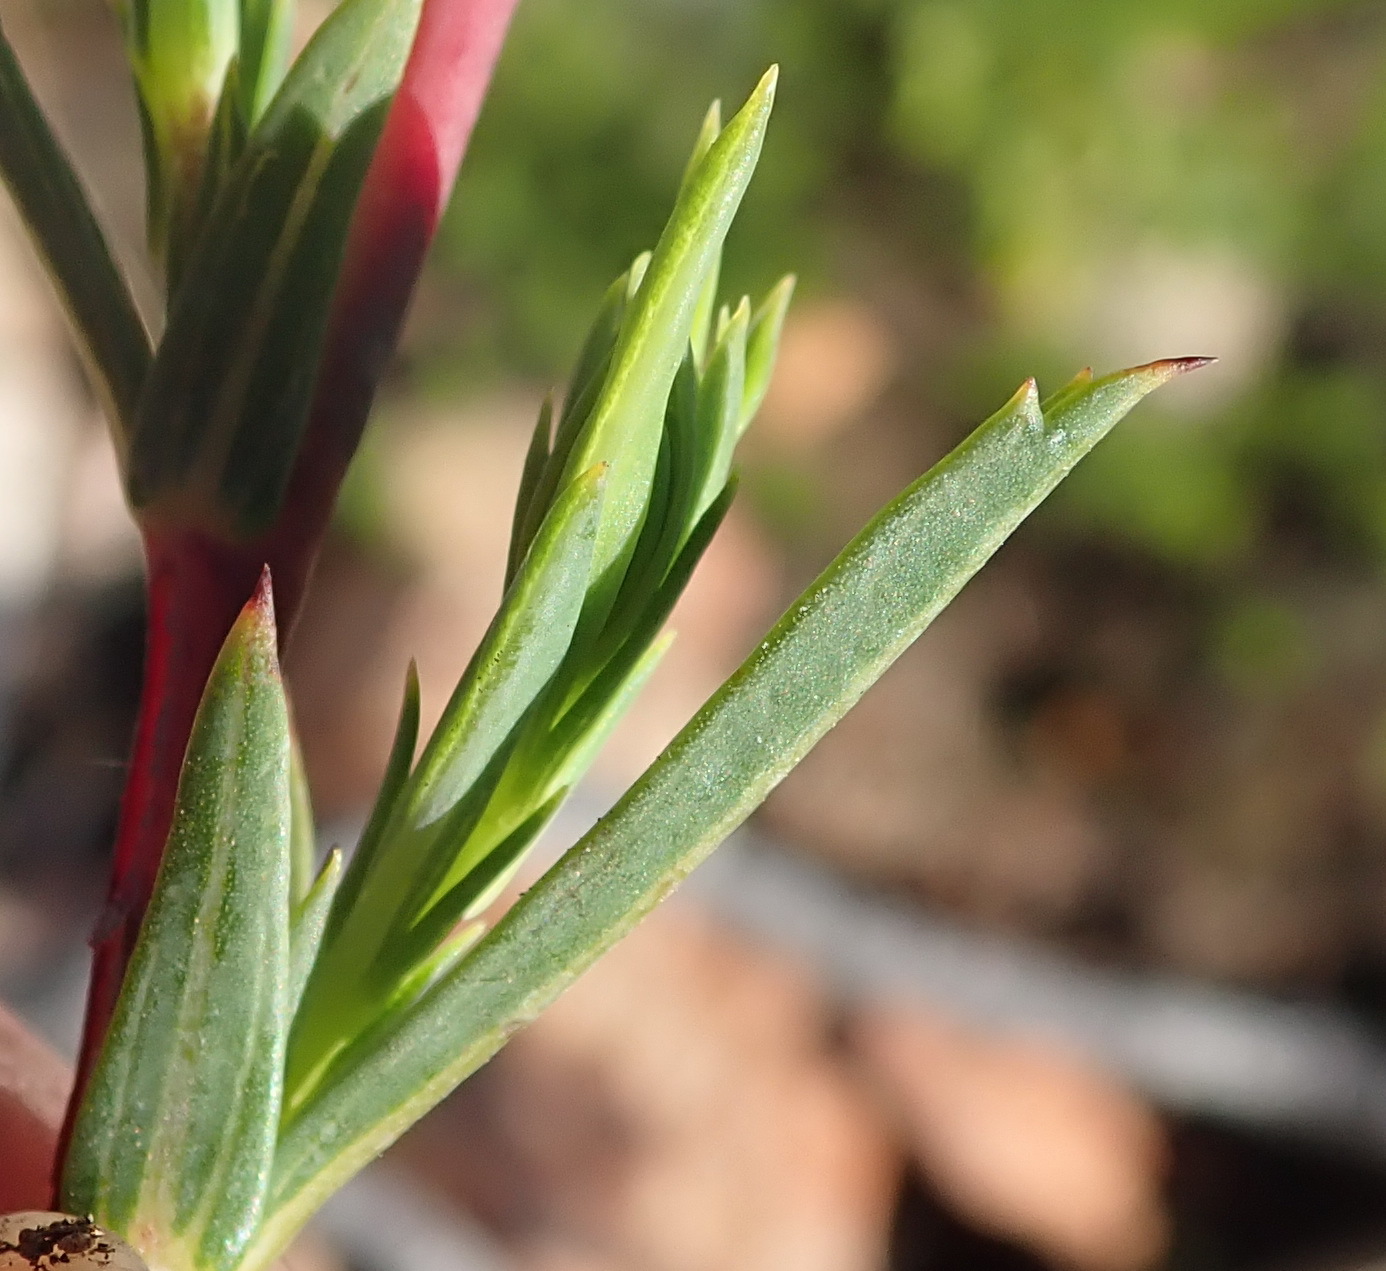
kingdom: Plantae
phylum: Tracheophyta
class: Magnoliopsida
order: Malvales
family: Malvaceae
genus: Hermannia
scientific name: Hermannia
